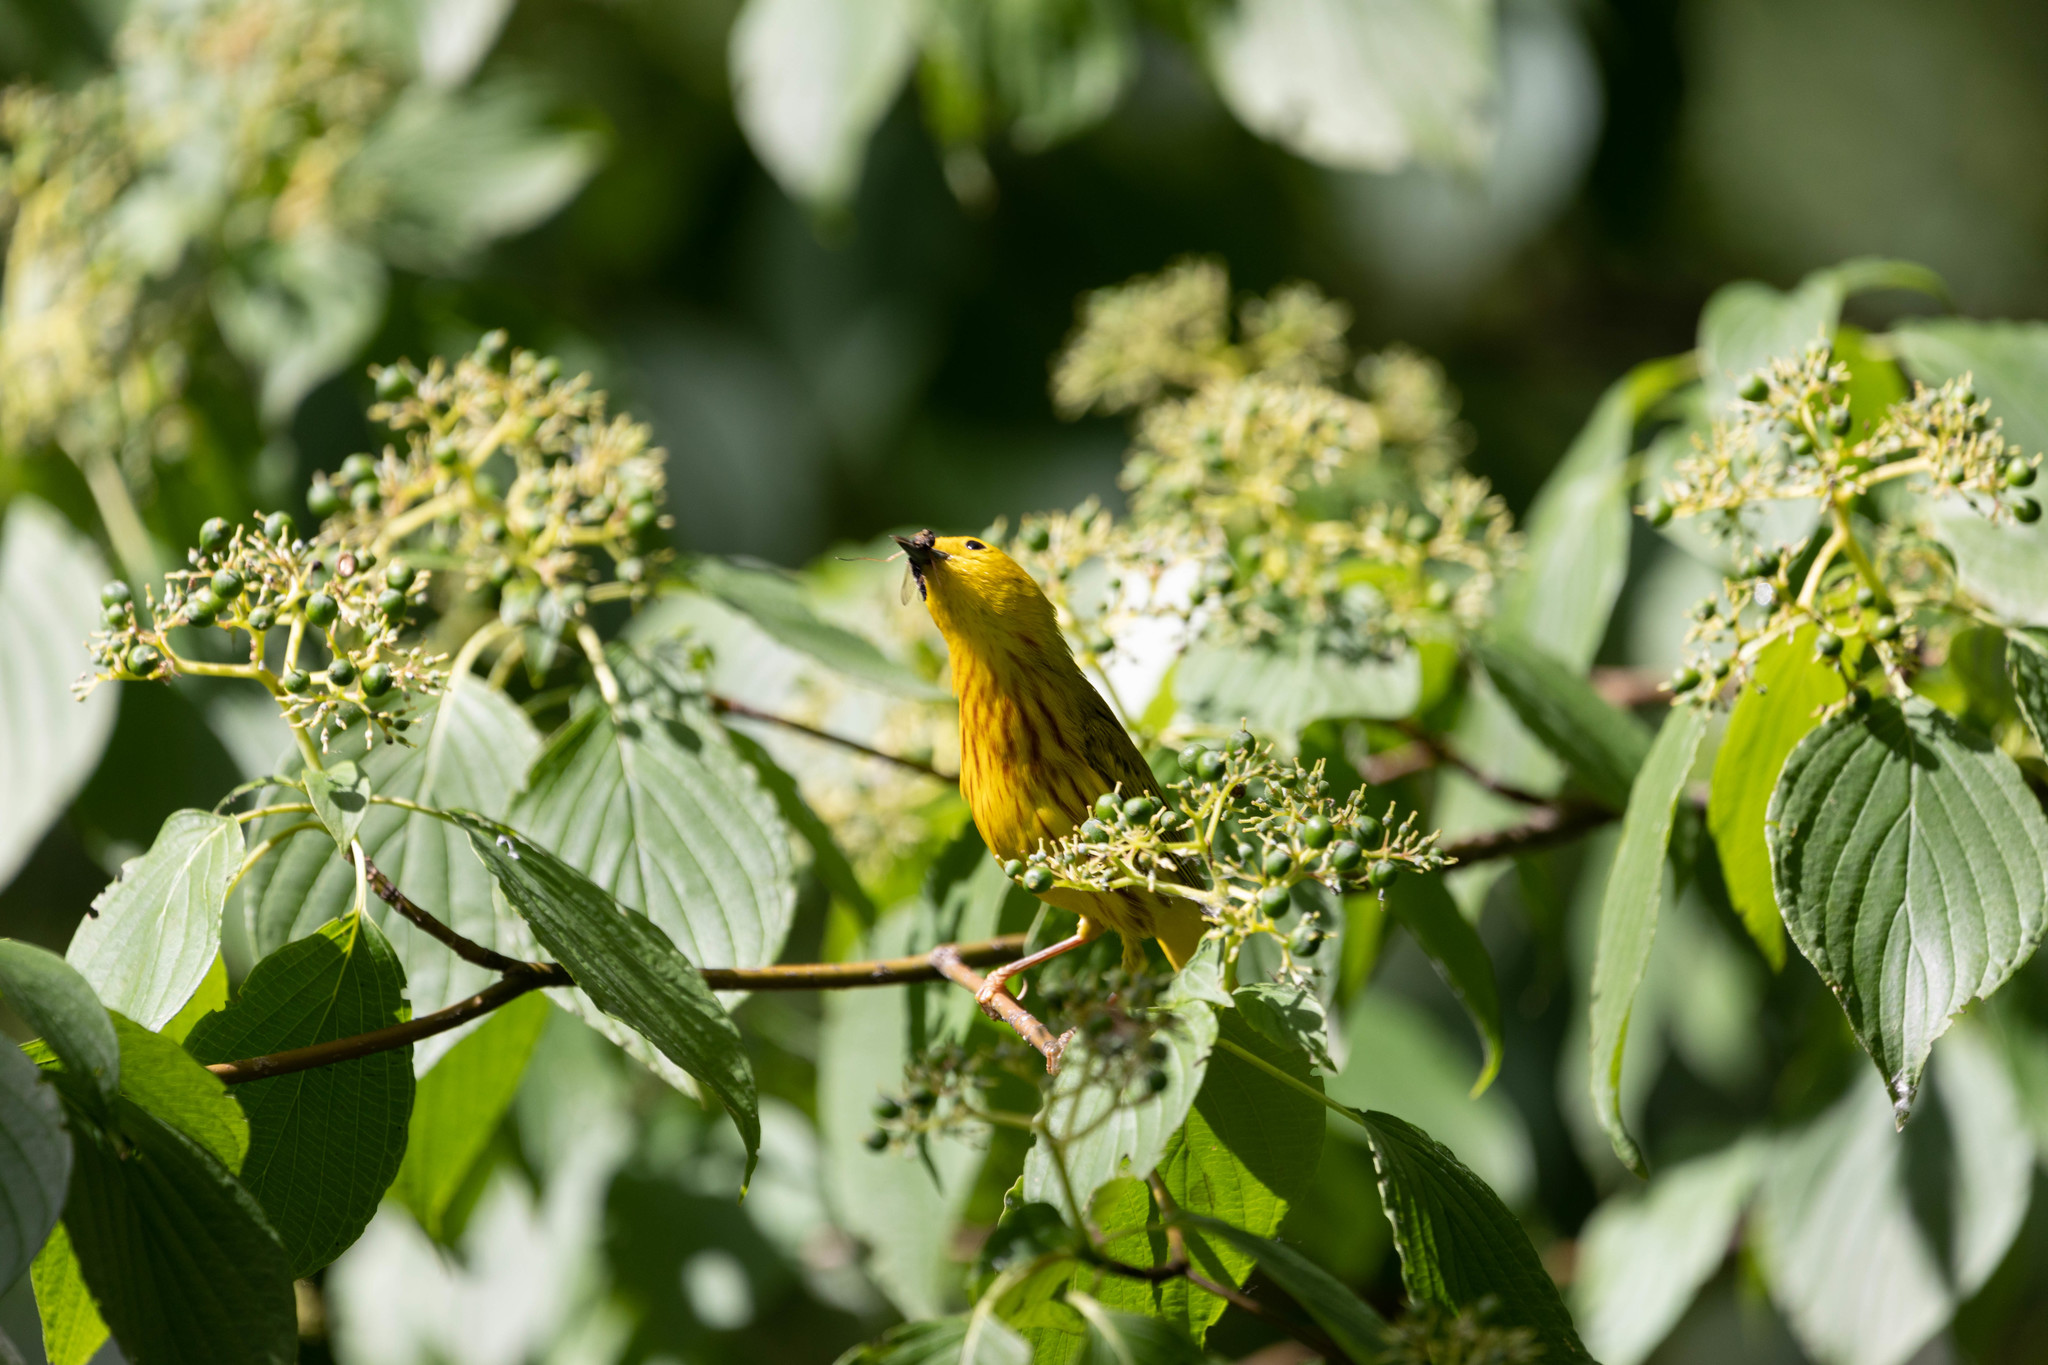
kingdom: Animalia
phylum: Chordata
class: Aves
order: Passeriformes
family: Parulidae
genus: Setophaga
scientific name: Setophaga petechia
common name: Yellow warbler
